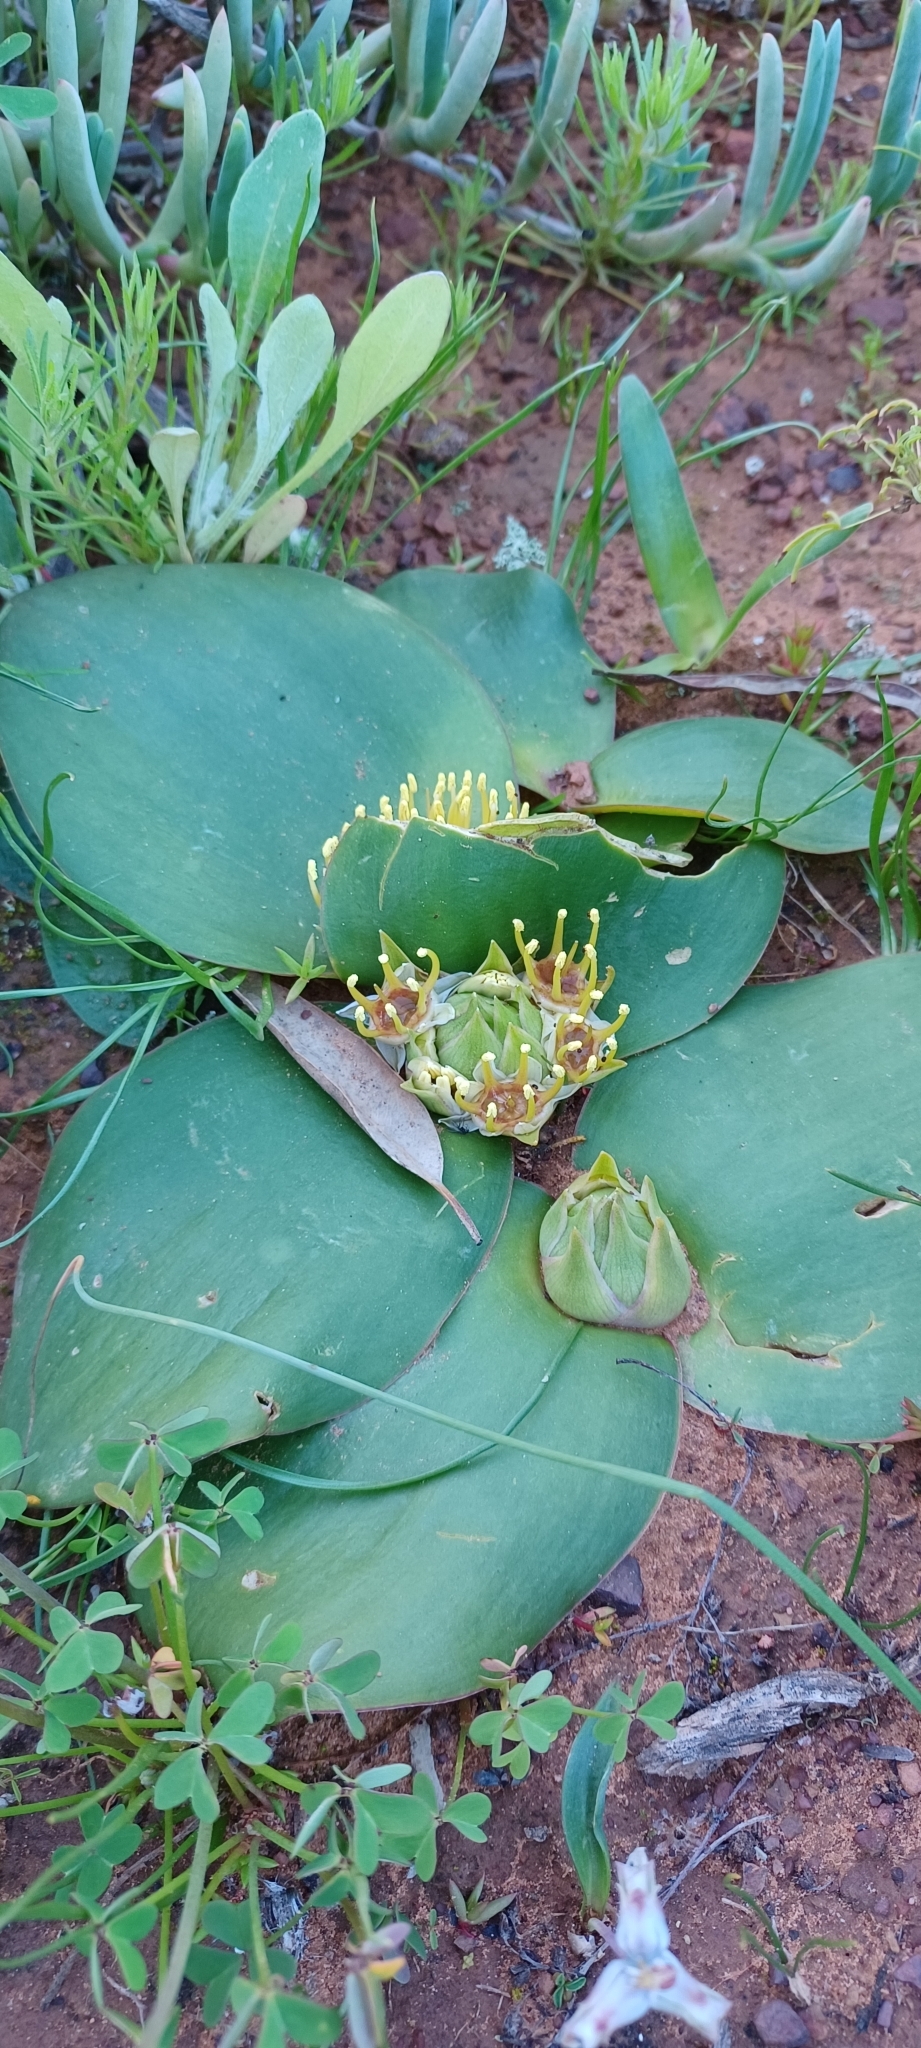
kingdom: Plantae
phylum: Tracheophyta
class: Liliopsida
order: Asparagales
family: Asparagaceae
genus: Massonia
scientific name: Massonia depressa
